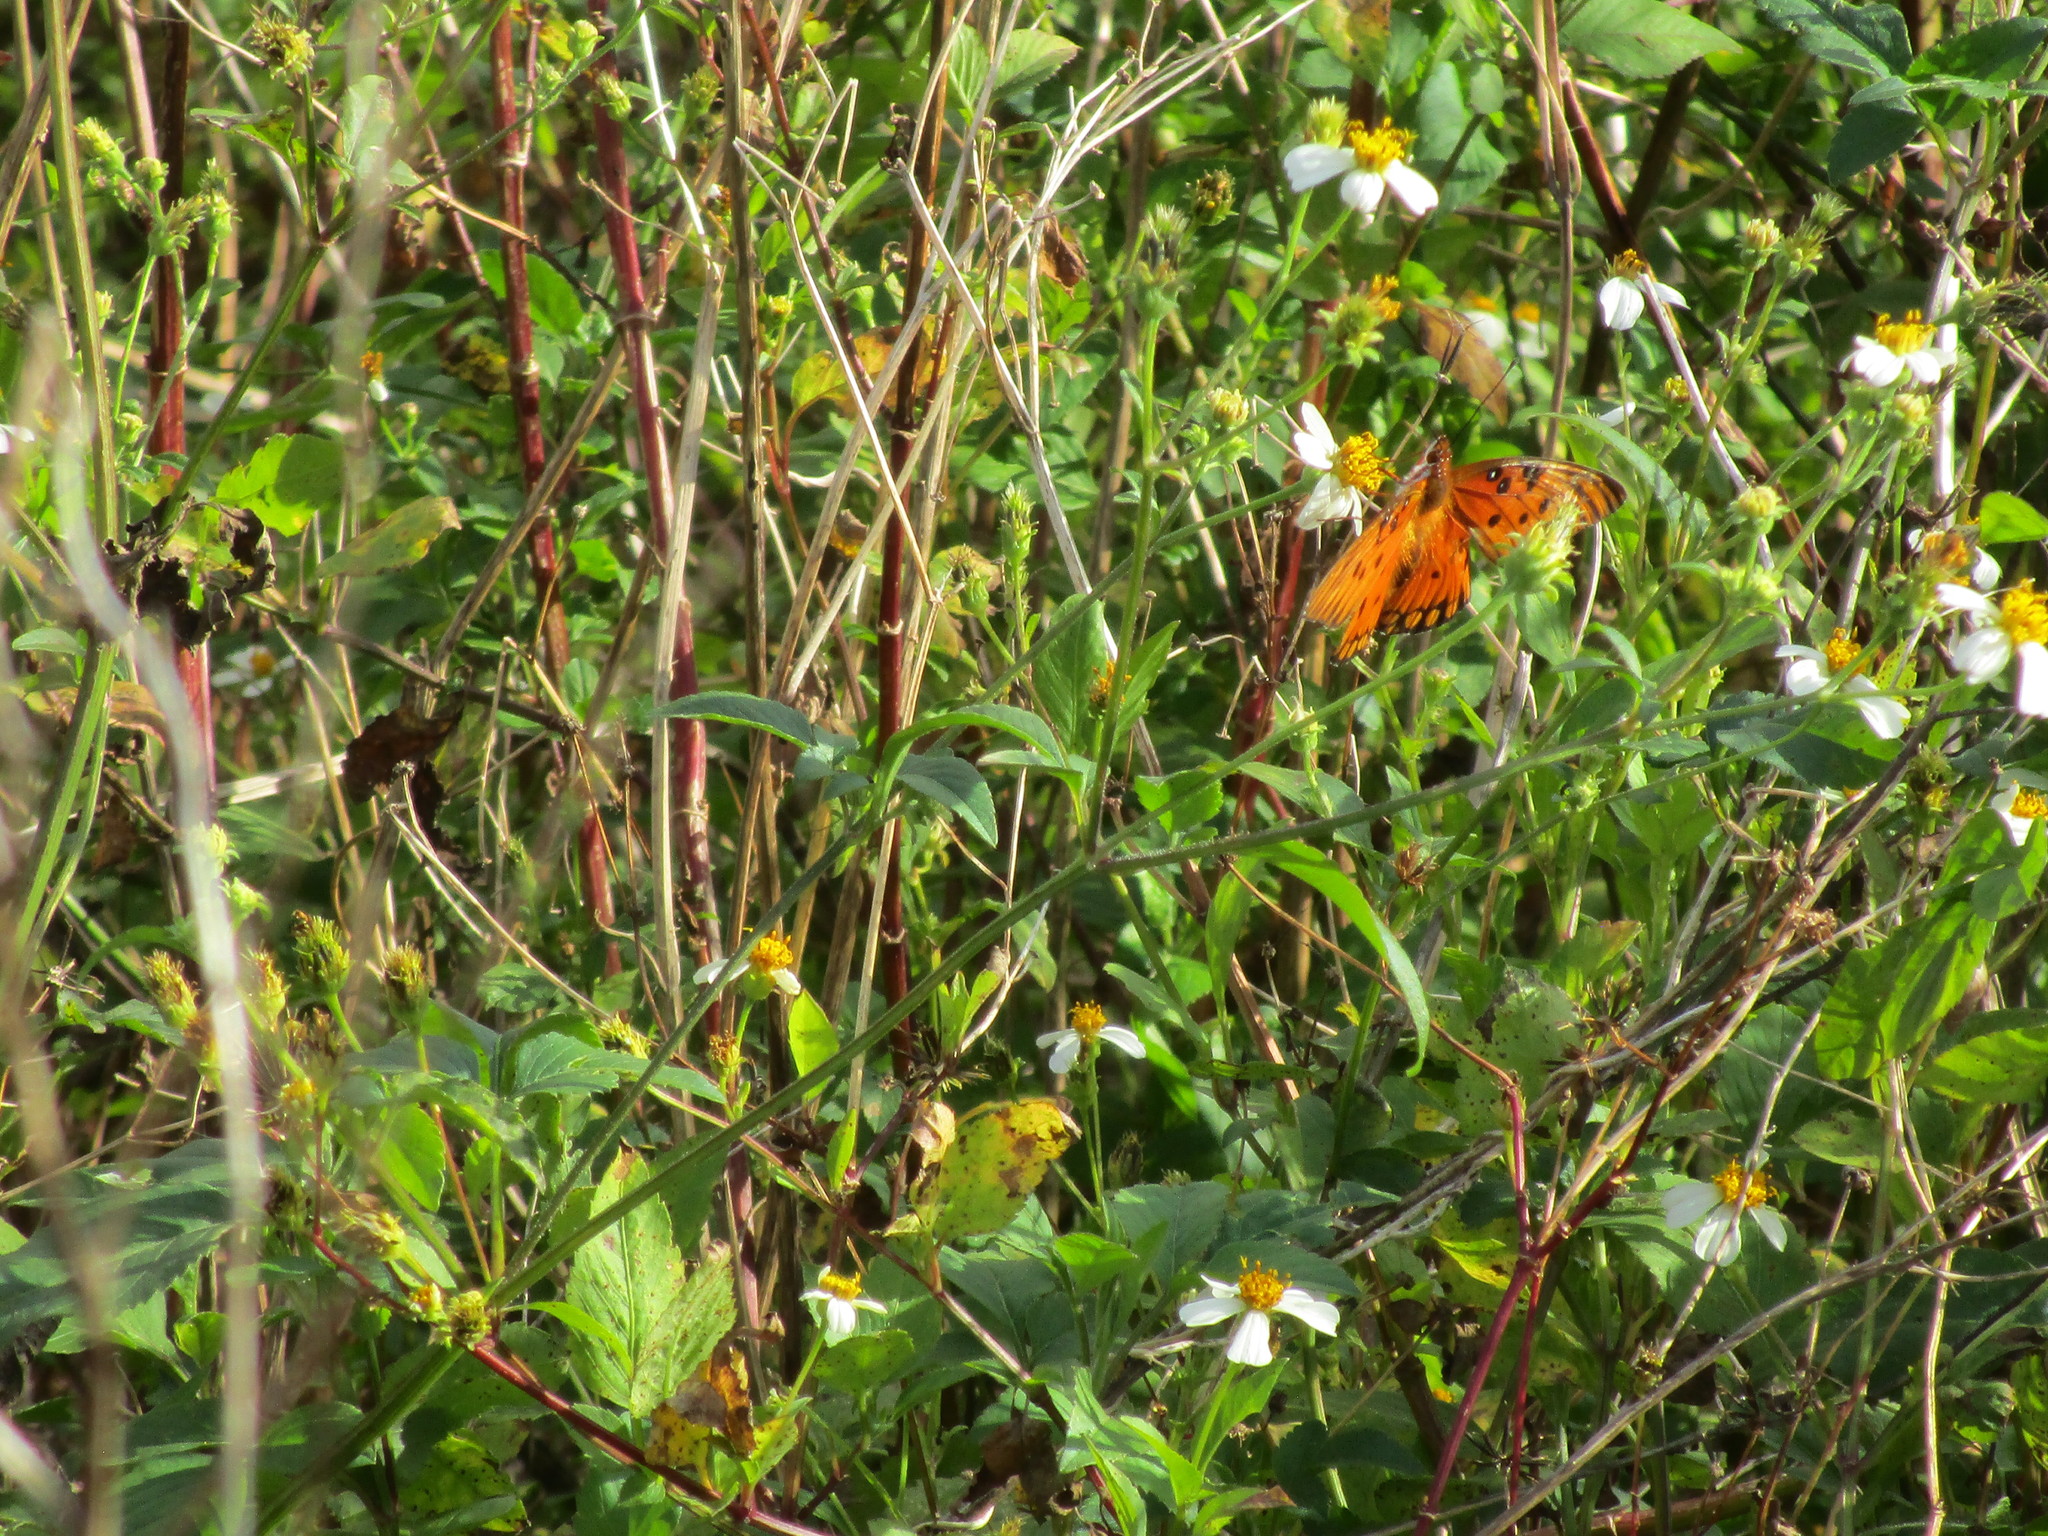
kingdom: Animalia
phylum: Arthropoda
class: Insecta
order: Lepidoptera
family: Nymphalidae
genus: Dione
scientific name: Dione vanillae
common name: Gulf fritillary
